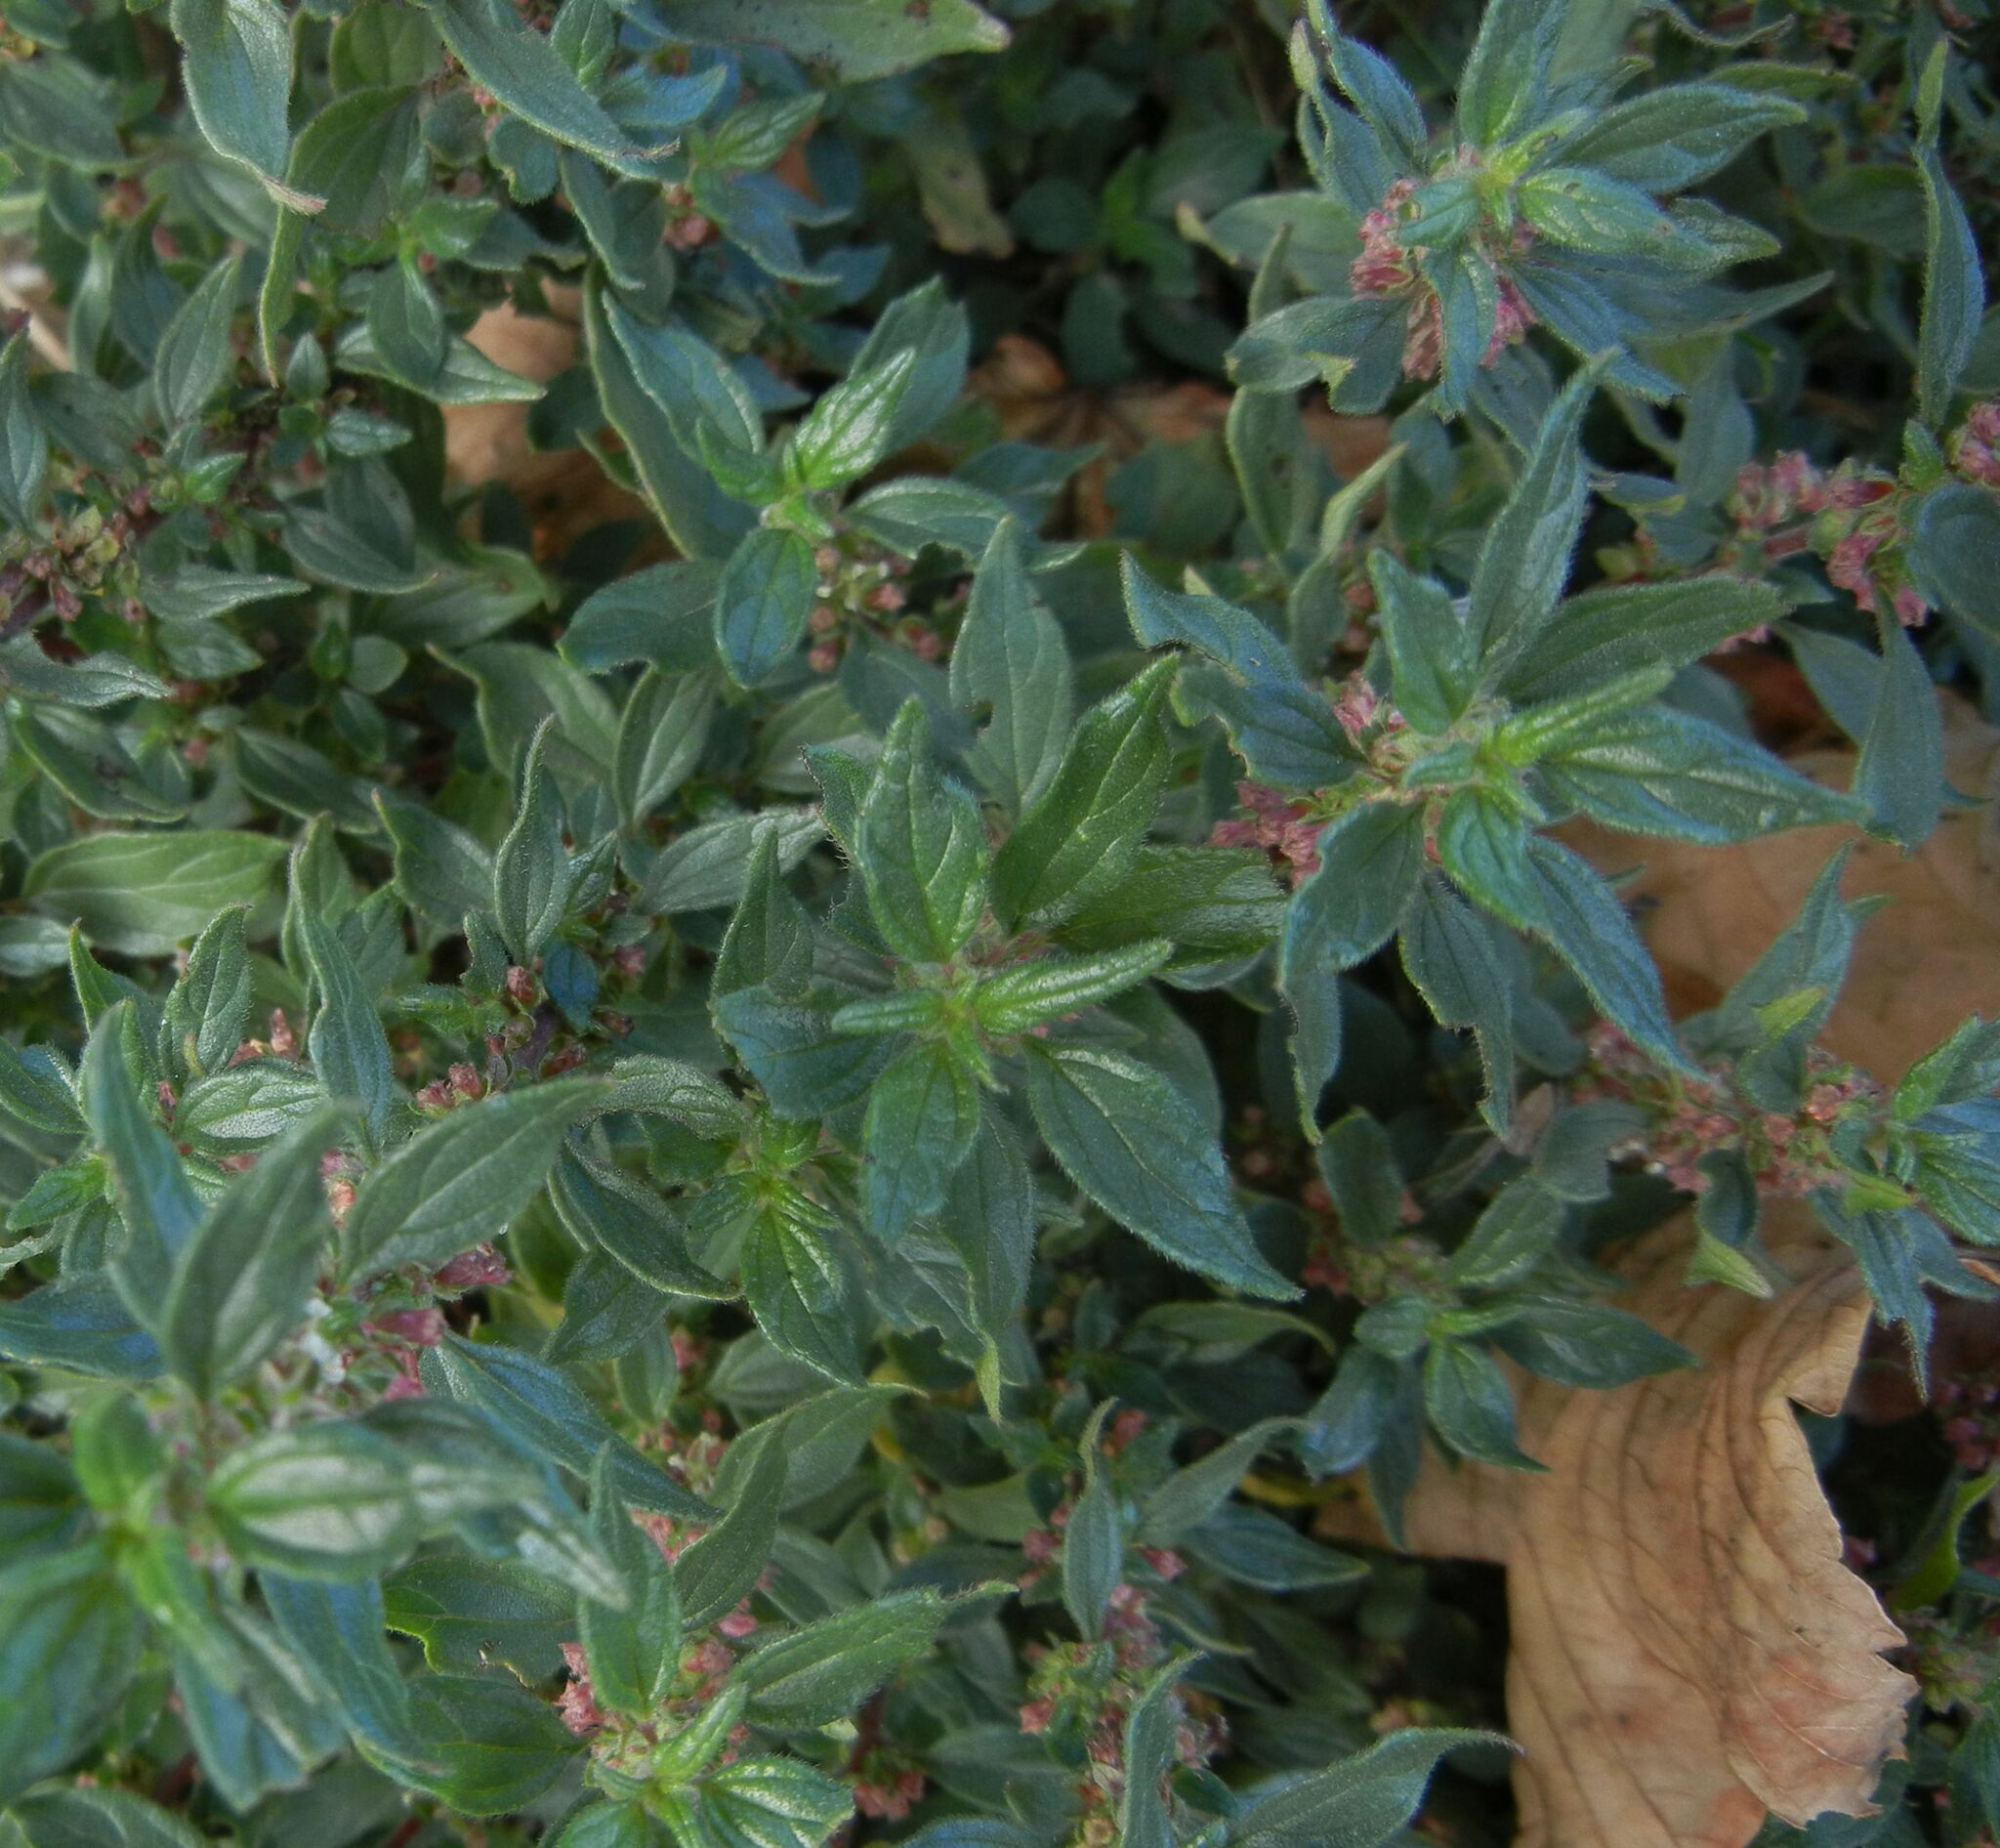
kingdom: Plantae
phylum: Tracheophyta
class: Magnoliopsida
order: Rosales
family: Urticaceae
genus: Parietaria
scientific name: Parietaria judaica
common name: Pellitory-of-the-wall
